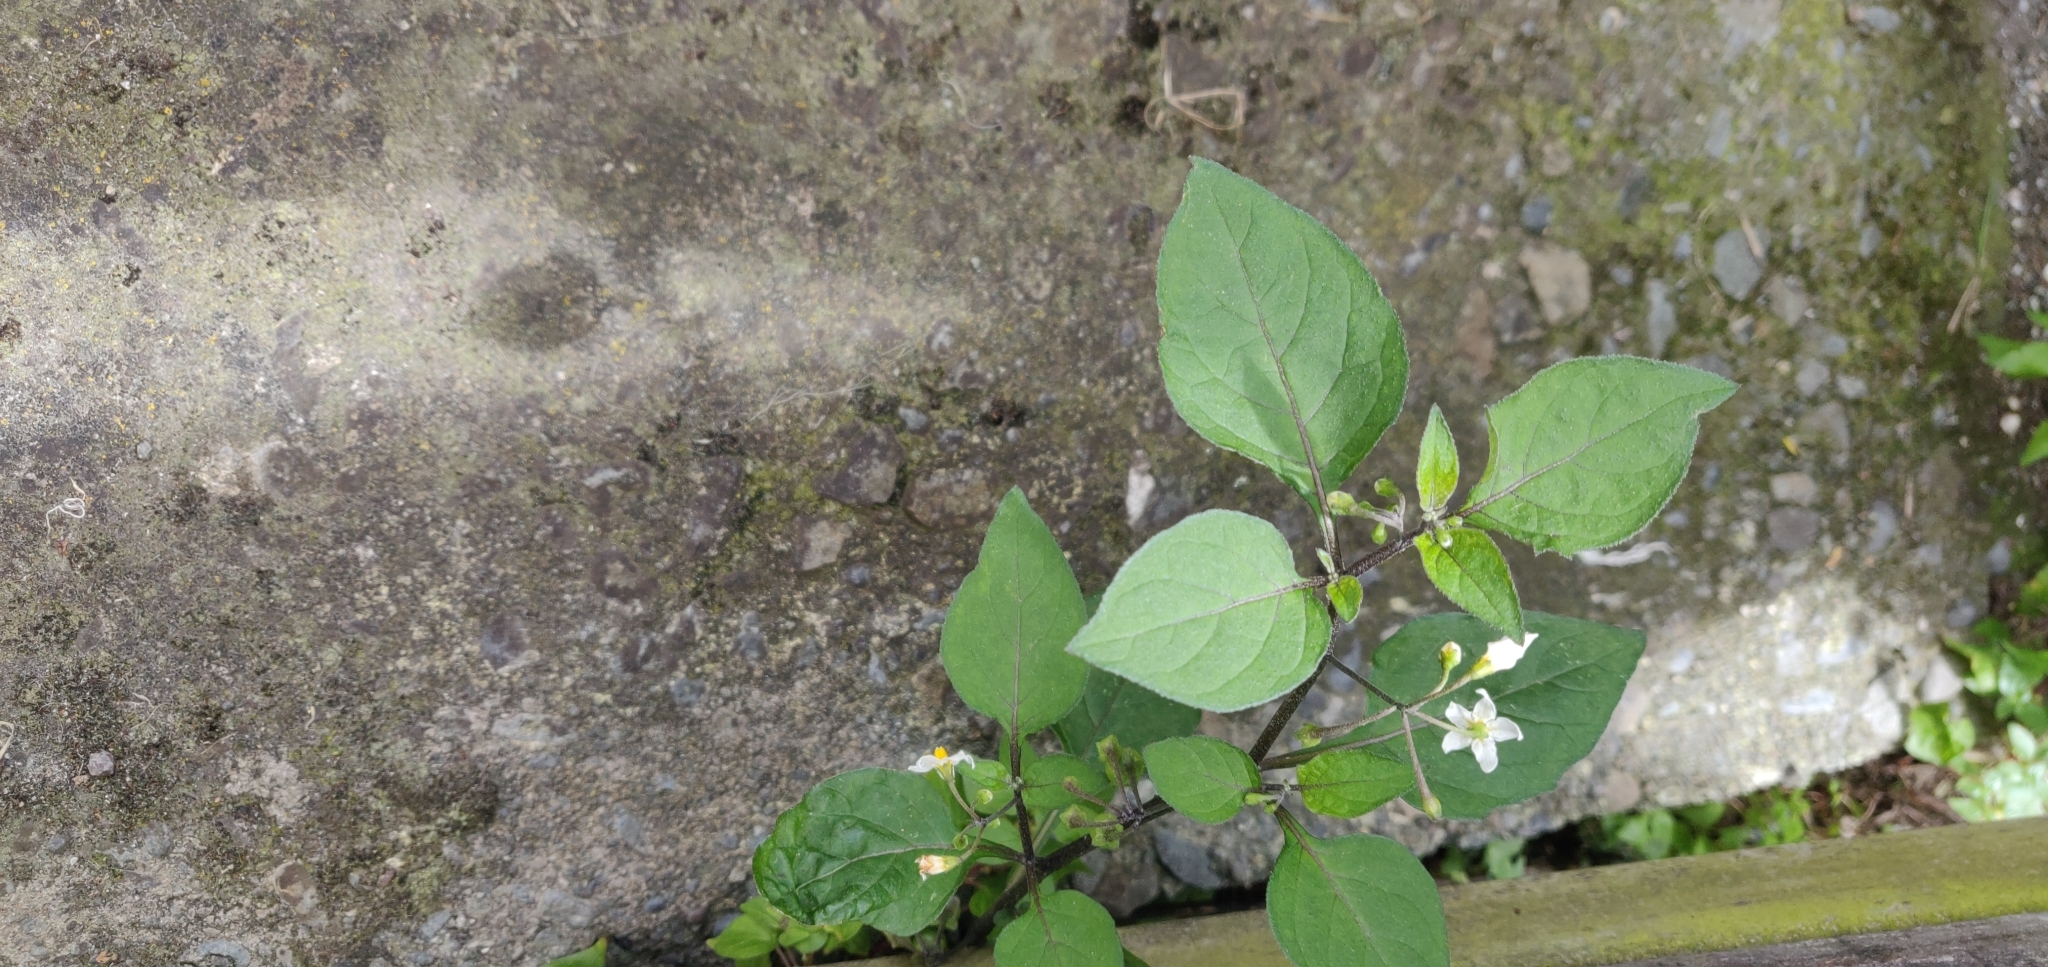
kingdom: Plantae
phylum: Tracheophyta
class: Magnoliopsida
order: Solanales
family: Solanaceae
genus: Solanum
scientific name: Solanum nigrum
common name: Black nightshade
